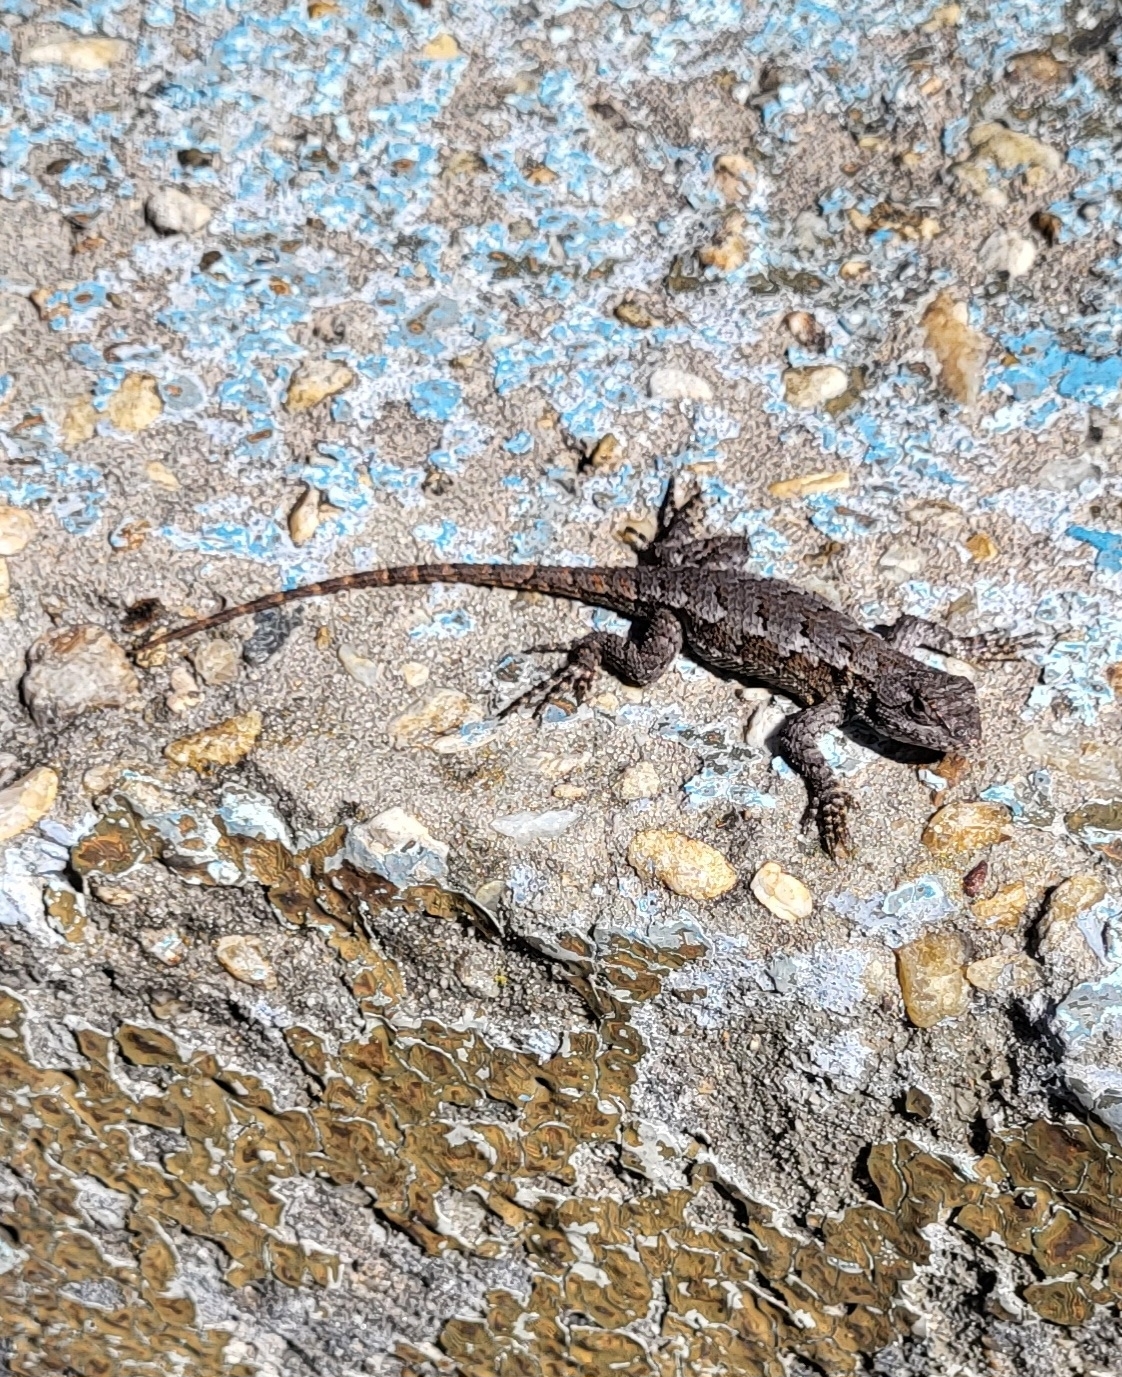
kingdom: Animalia
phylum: Chordata
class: Squamata
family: Phrynosomatidae
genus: Sceloporus
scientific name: Sceloporus undulatus
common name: Eastern fence lizard
